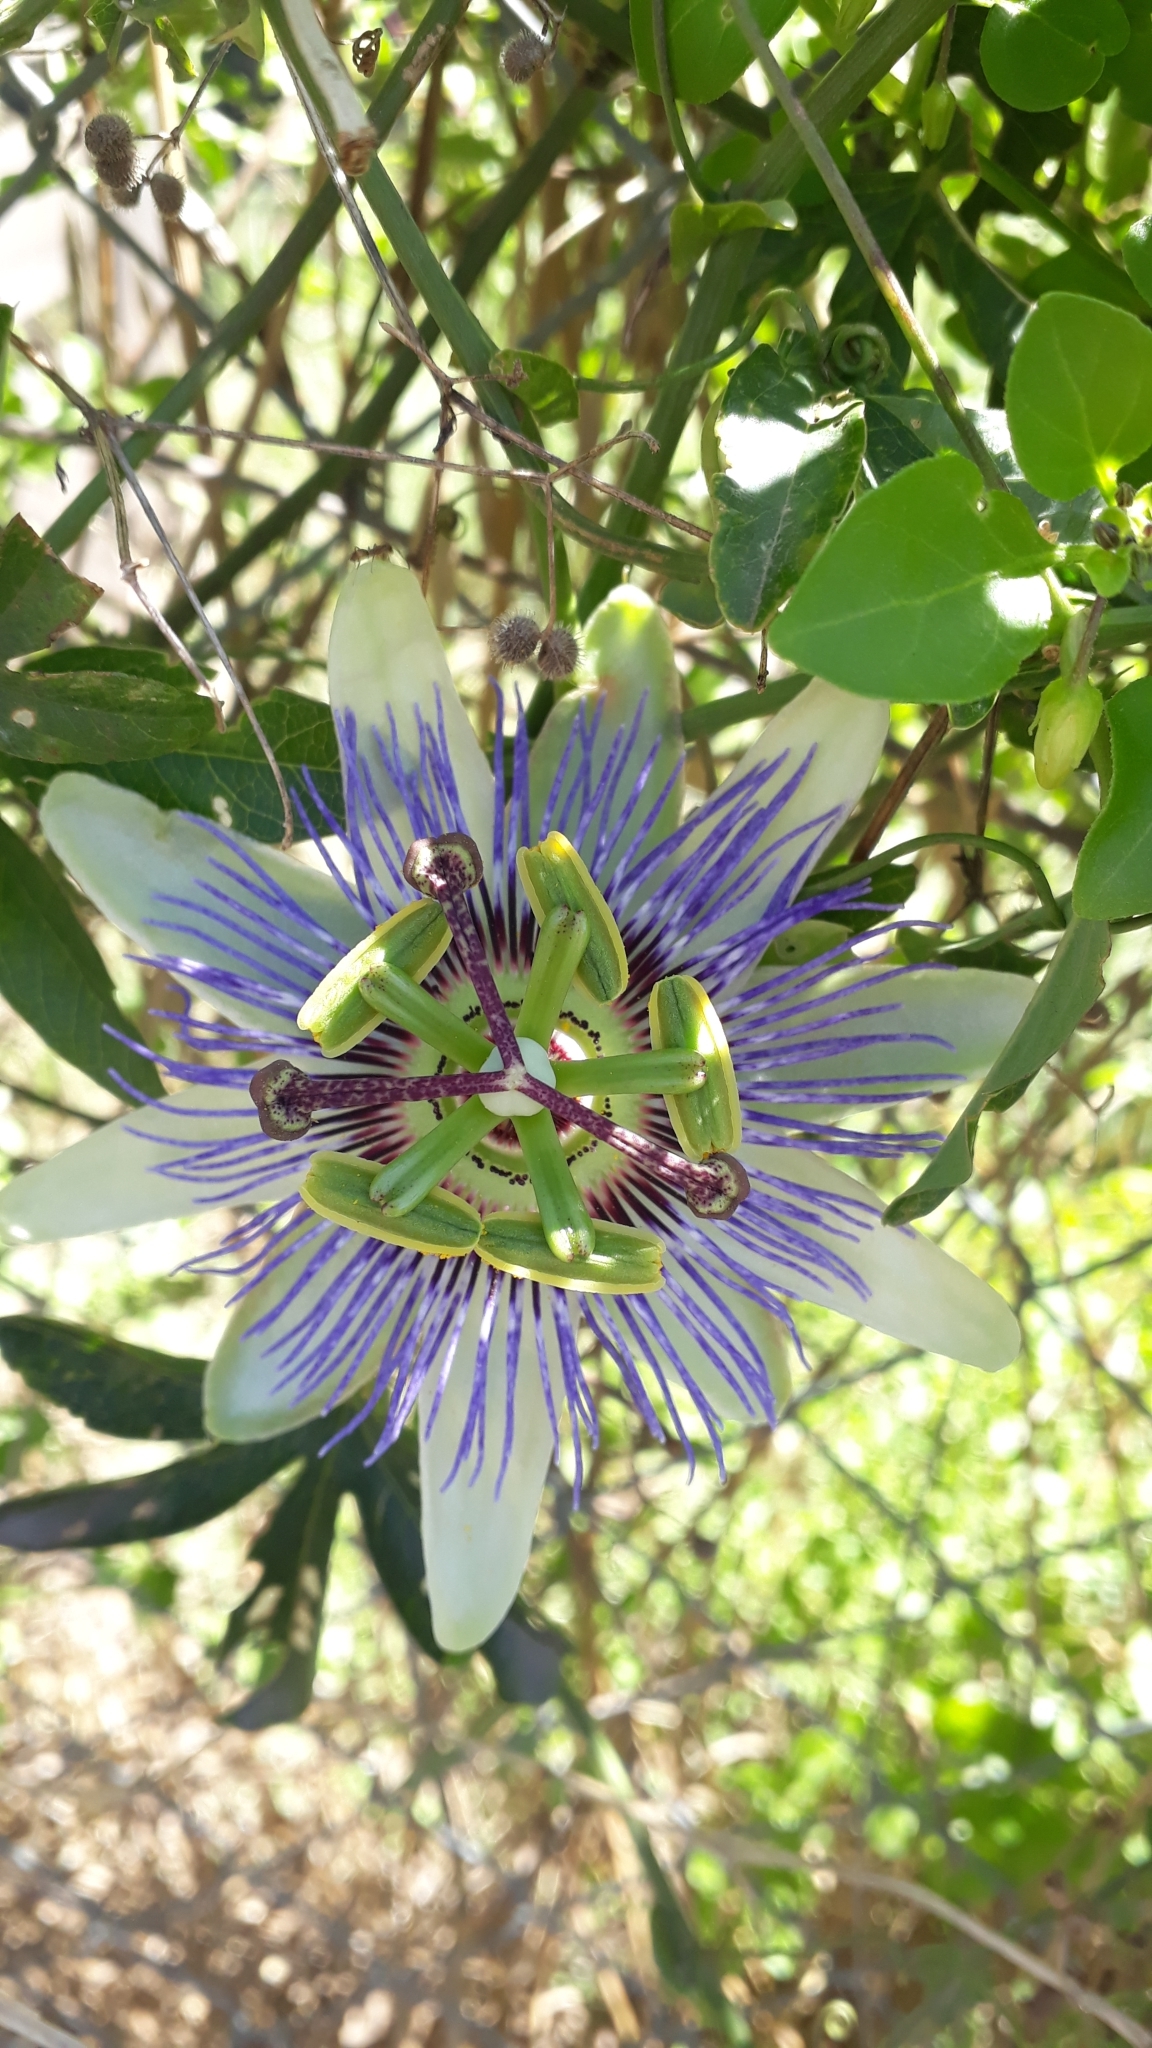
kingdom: Plantae
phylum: Tracheophyta
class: Magnoliopsida
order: Malpighiales
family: Passifloraceae
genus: Passiflora
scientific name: Passiflora caerulea
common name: Blue passionflower
